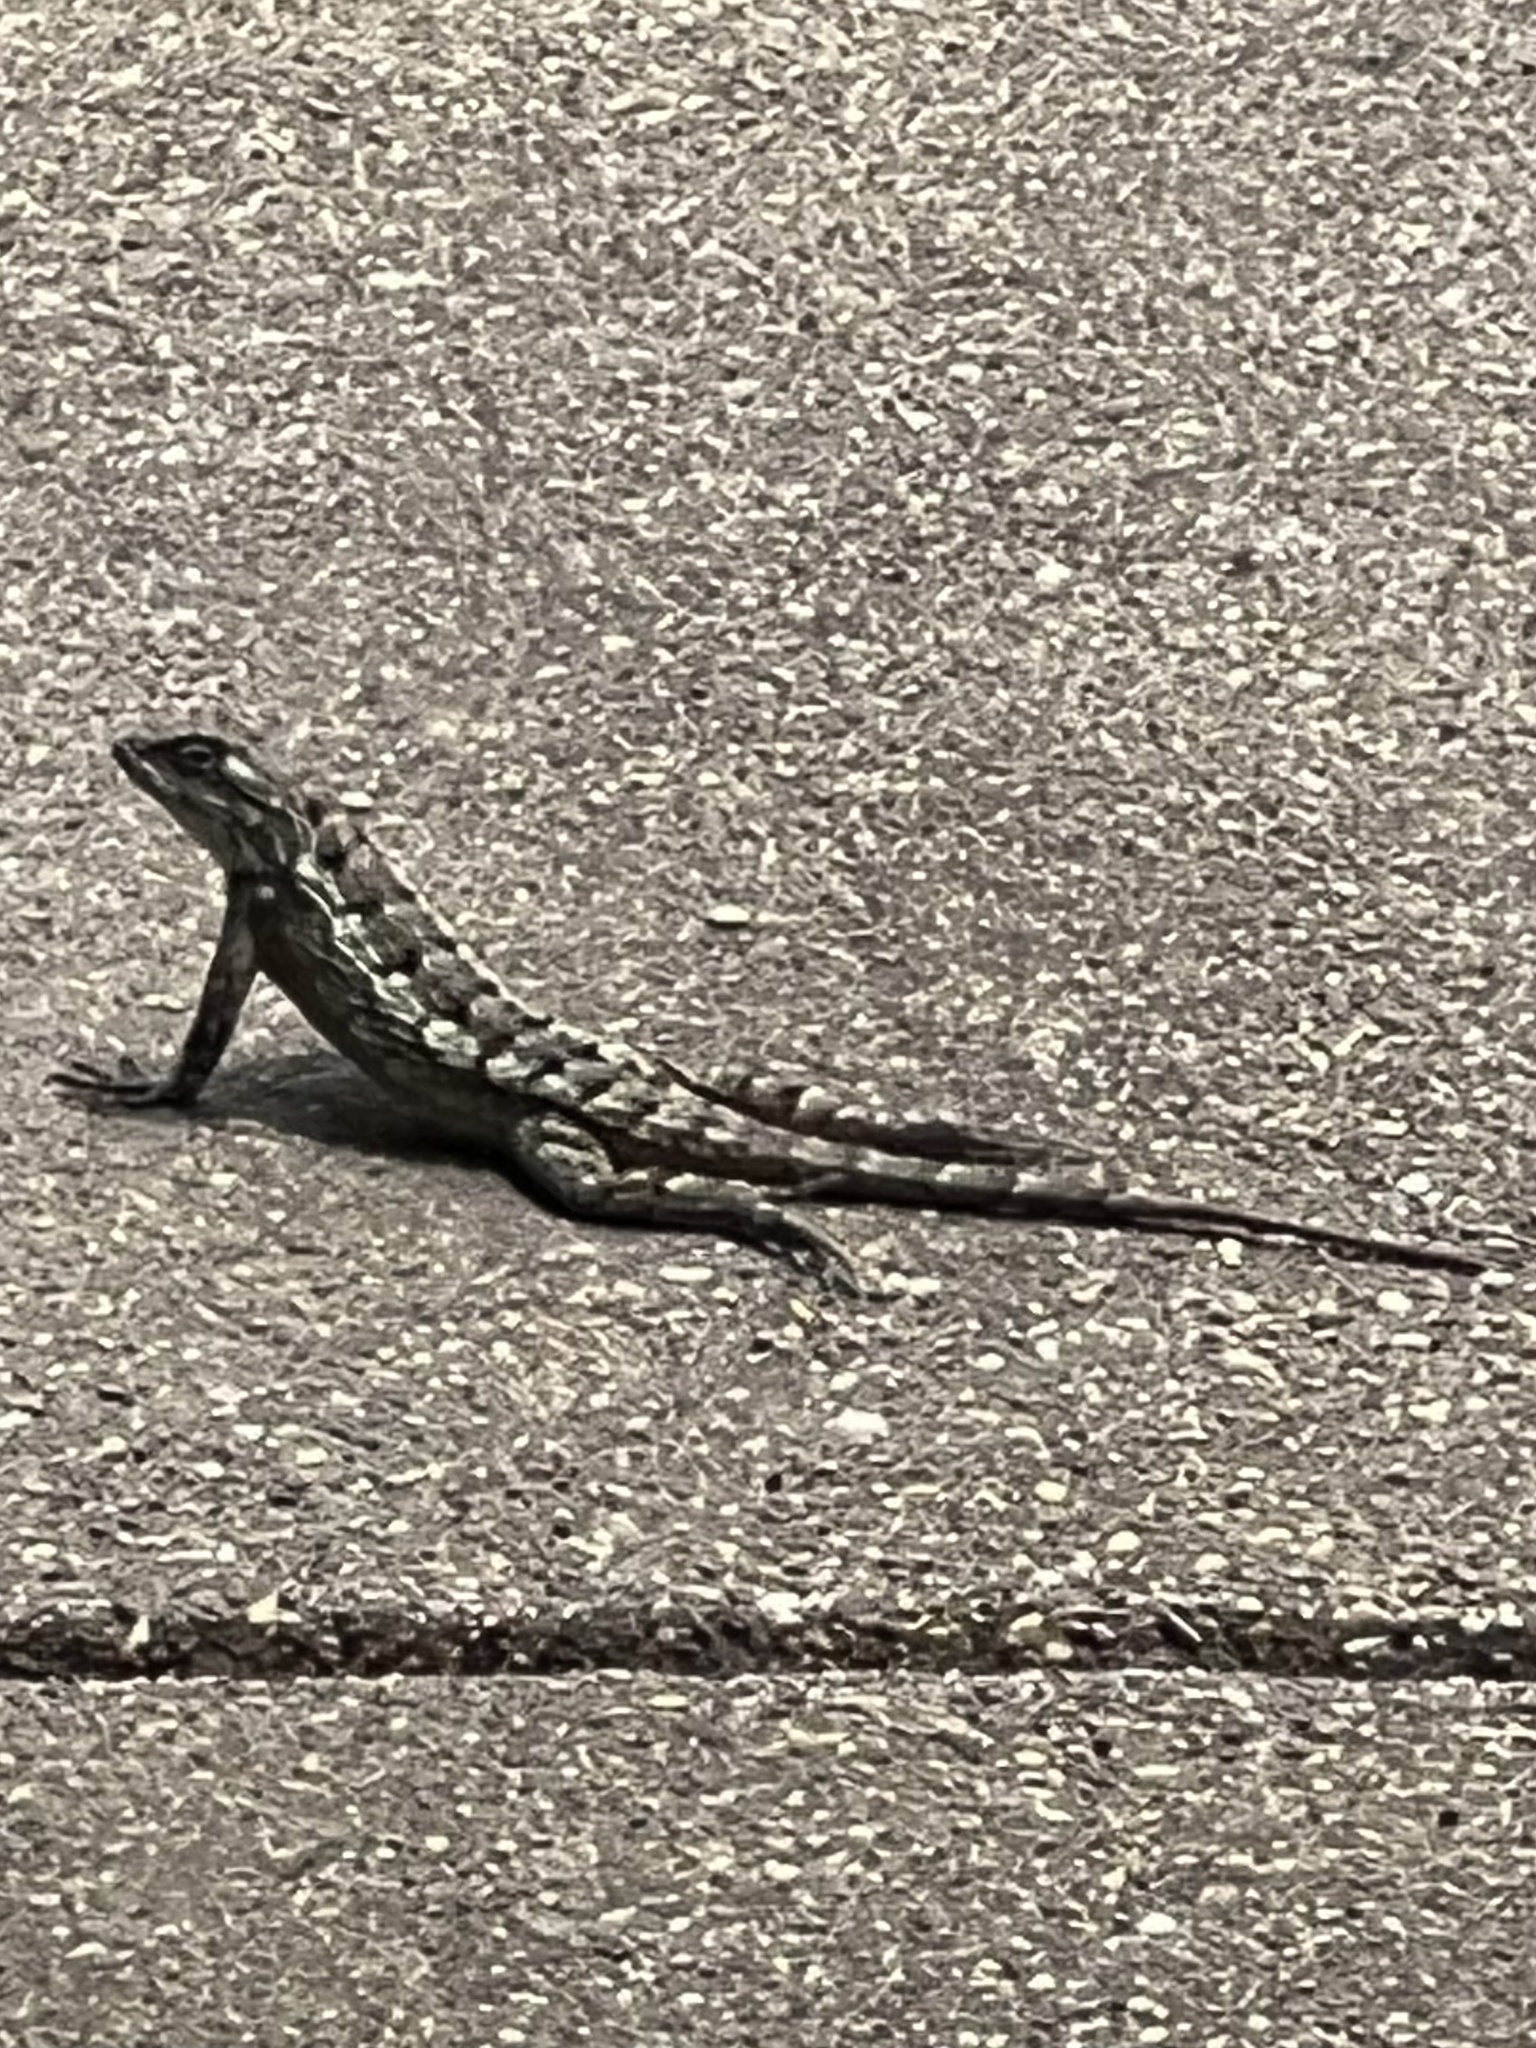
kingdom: Animalia
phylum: Chordata
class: Squamata
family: Phrynosomatidae
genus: Sceloporus
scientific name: Sceloporus olivaceus
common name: Texas spiny lizard
